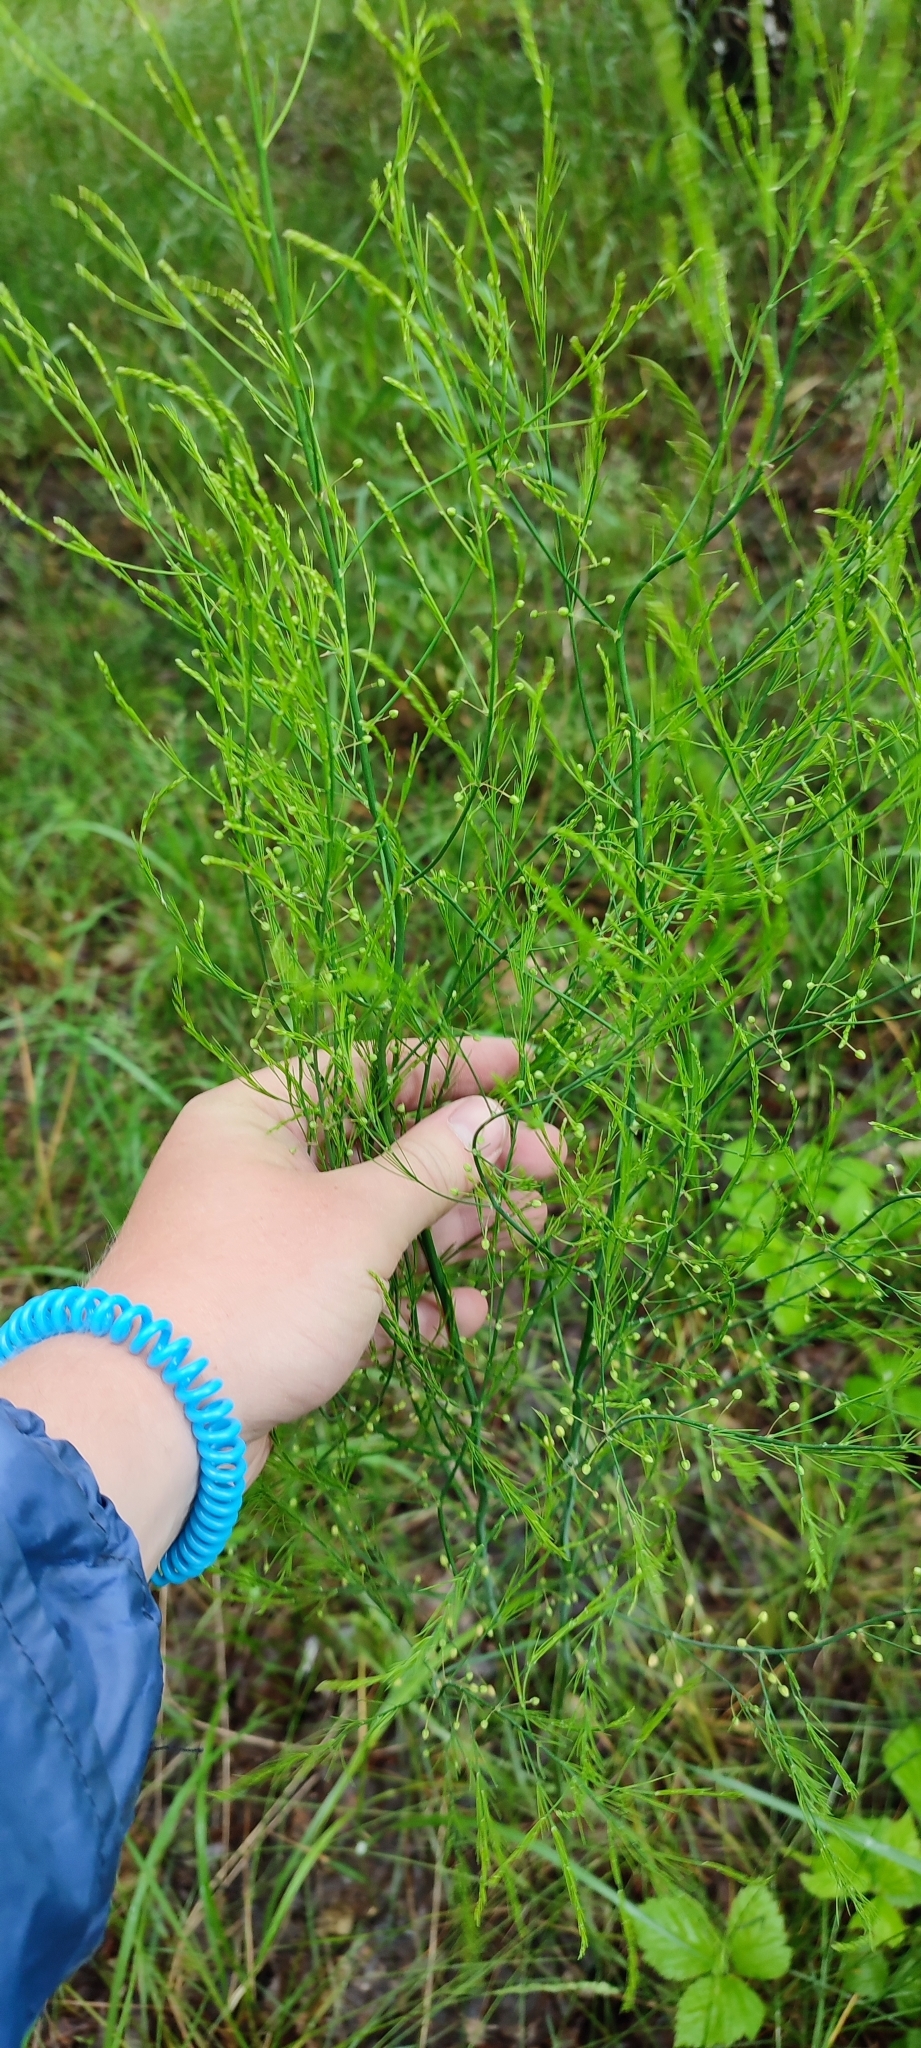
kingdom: Plantae
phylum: Tracheophyta
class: Liliopsida
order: Asparagales
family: Asparagaceae
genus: Asparagus
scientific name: Asparagus officinalis
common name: Garden asparagus
